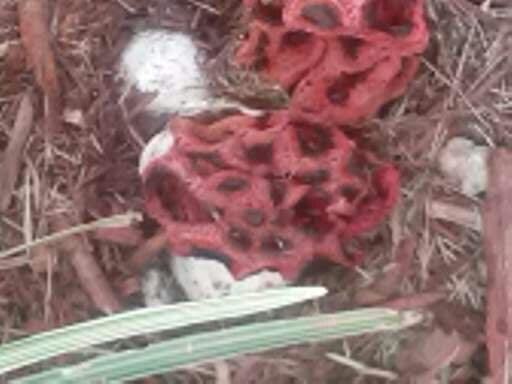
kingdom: Fungi
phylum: Basidiomycota
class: Agaricomycetes
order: Phallales
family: Phallaceae
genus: Clathrus
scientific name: Clathrus crispatus
